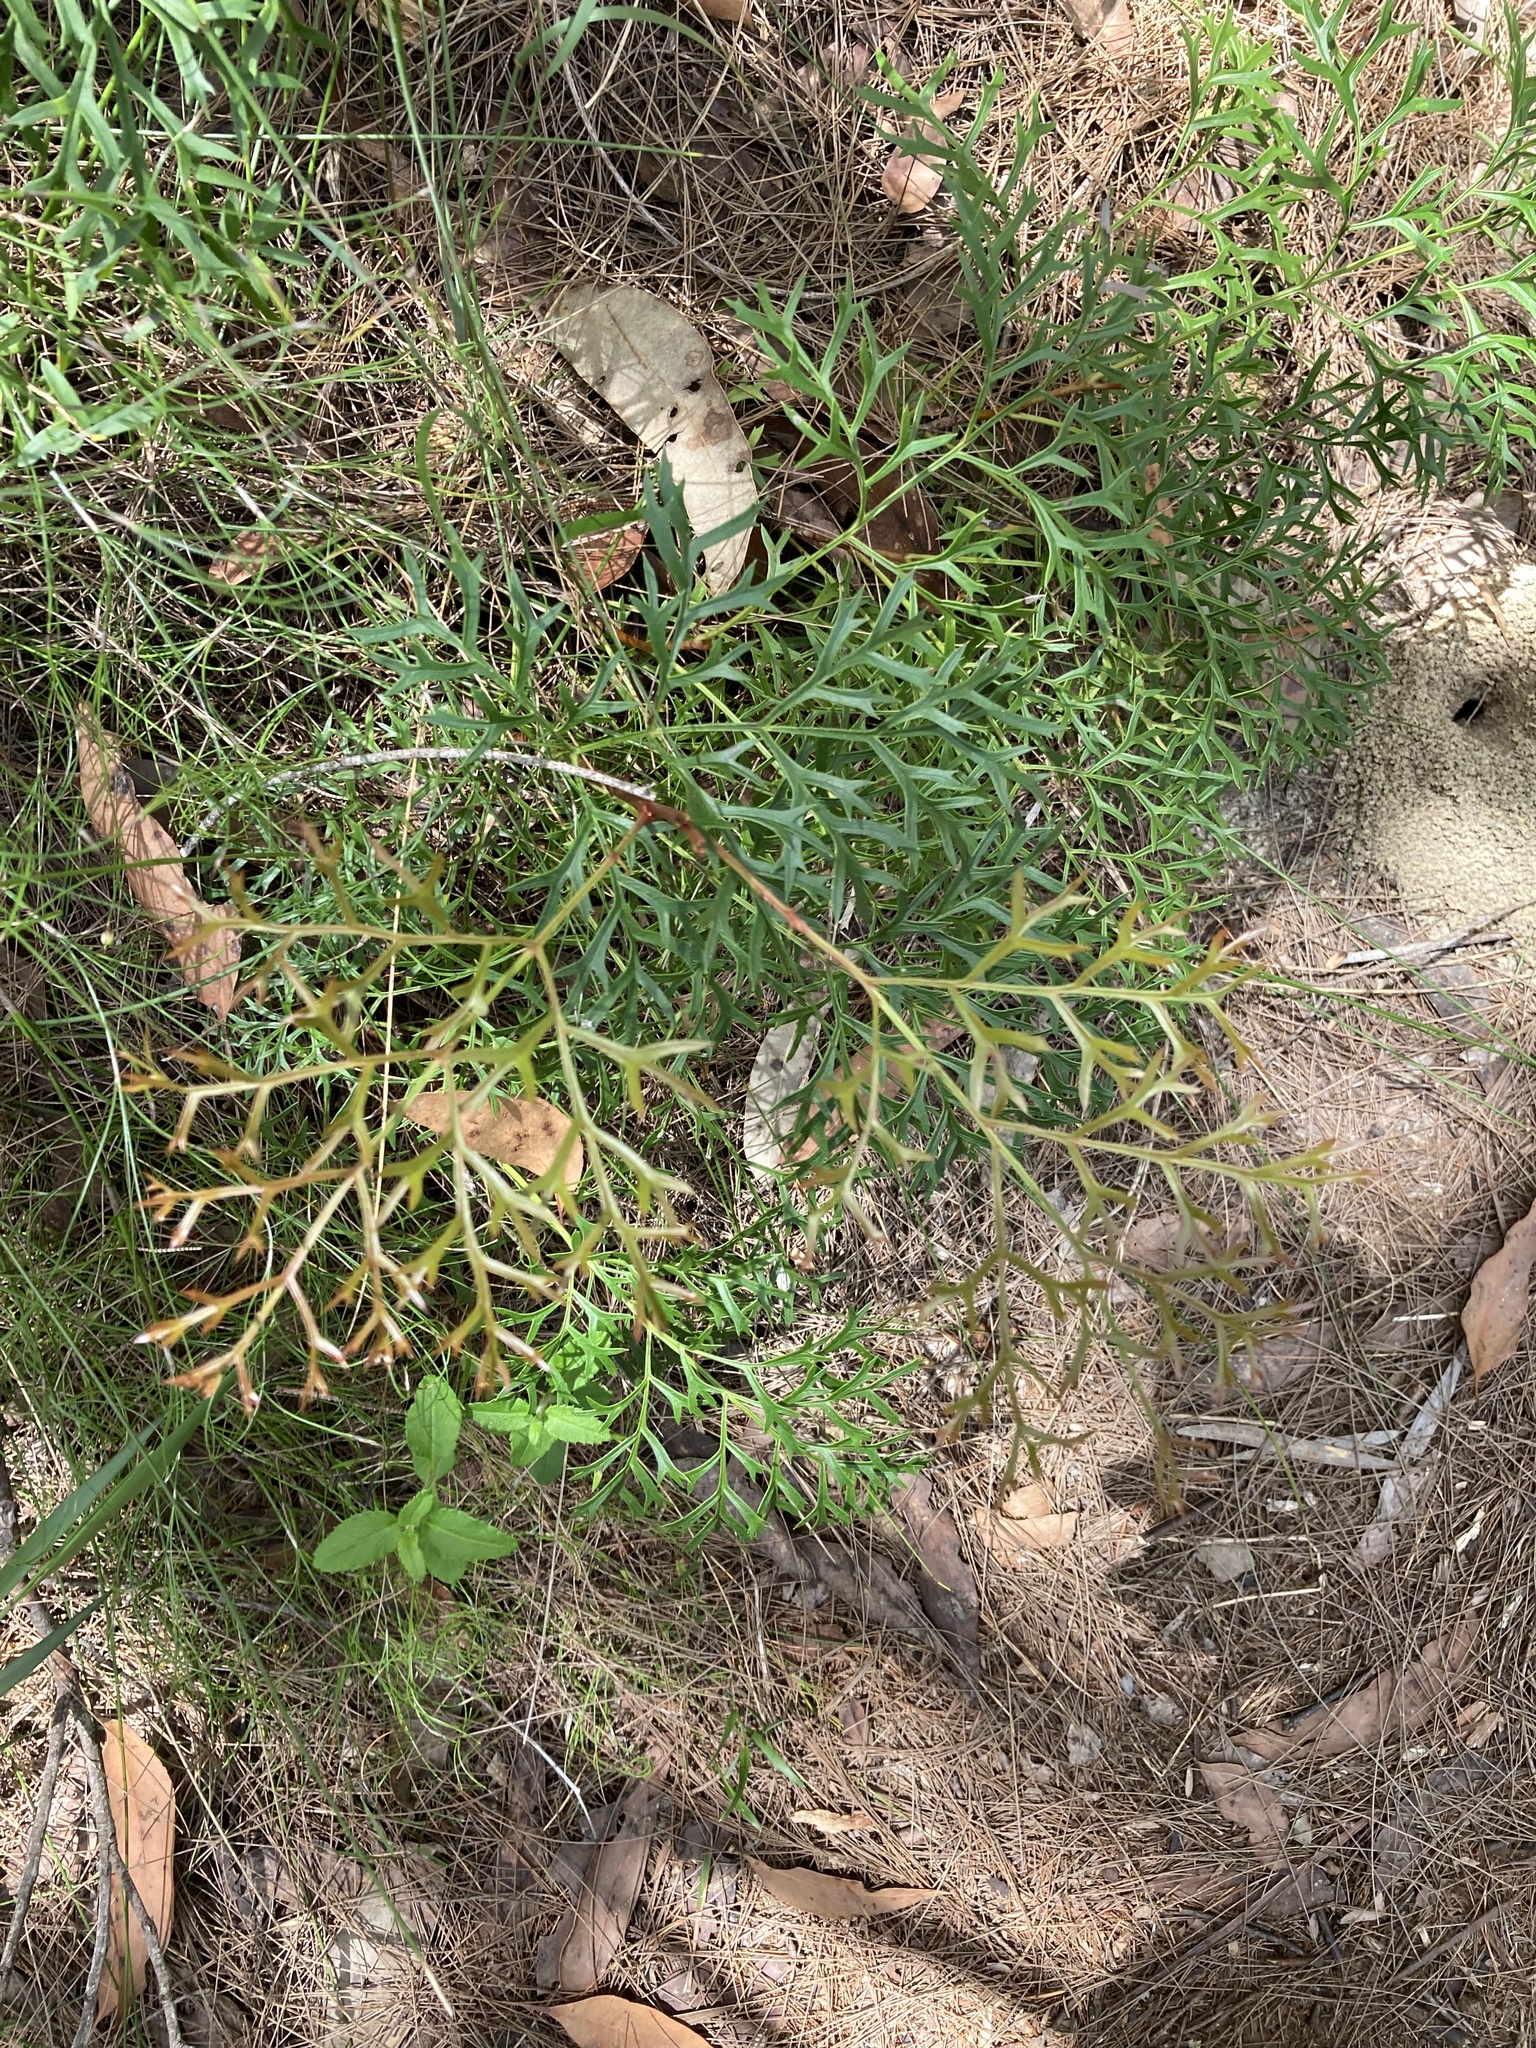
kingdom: Plantae
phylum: Tracheophyta
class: Magnoliopsida
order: Proteales
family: Proteaceae
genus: Lomatia
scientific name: Lomatia silaifolia
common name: Crinklebush
